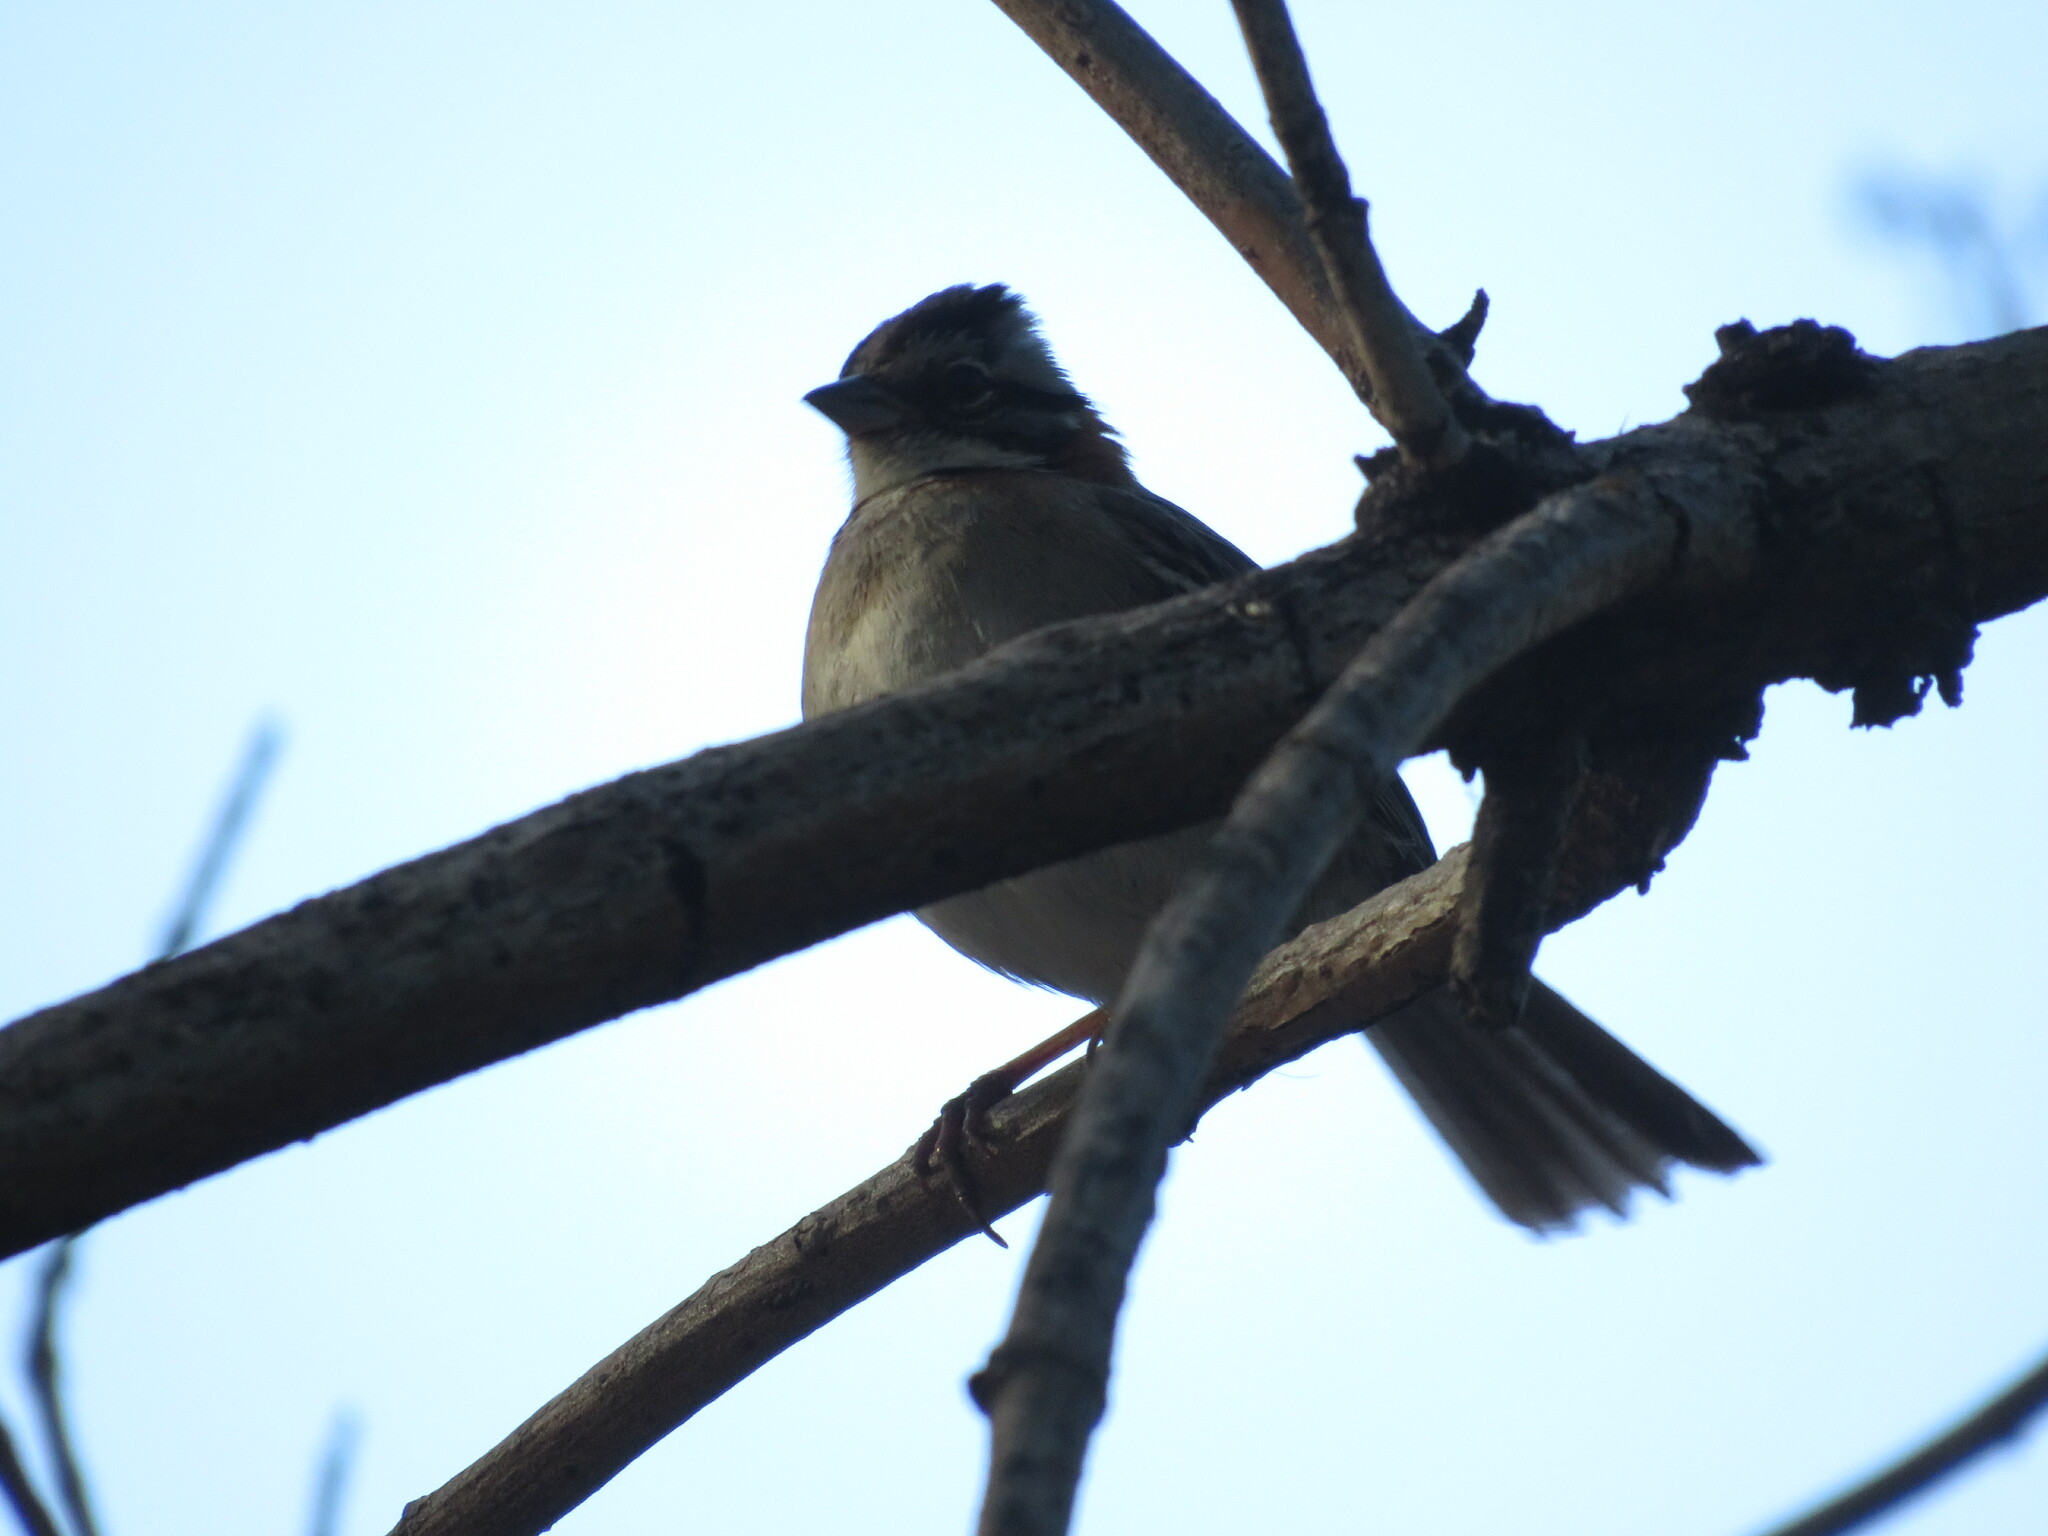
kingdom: Animalia
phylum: Chordata
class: Aves
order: Passeriformes
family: Passerellidae
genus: Zonotrichia
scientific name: Zonotrichia capensis
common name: Rufous-collared sparrow
